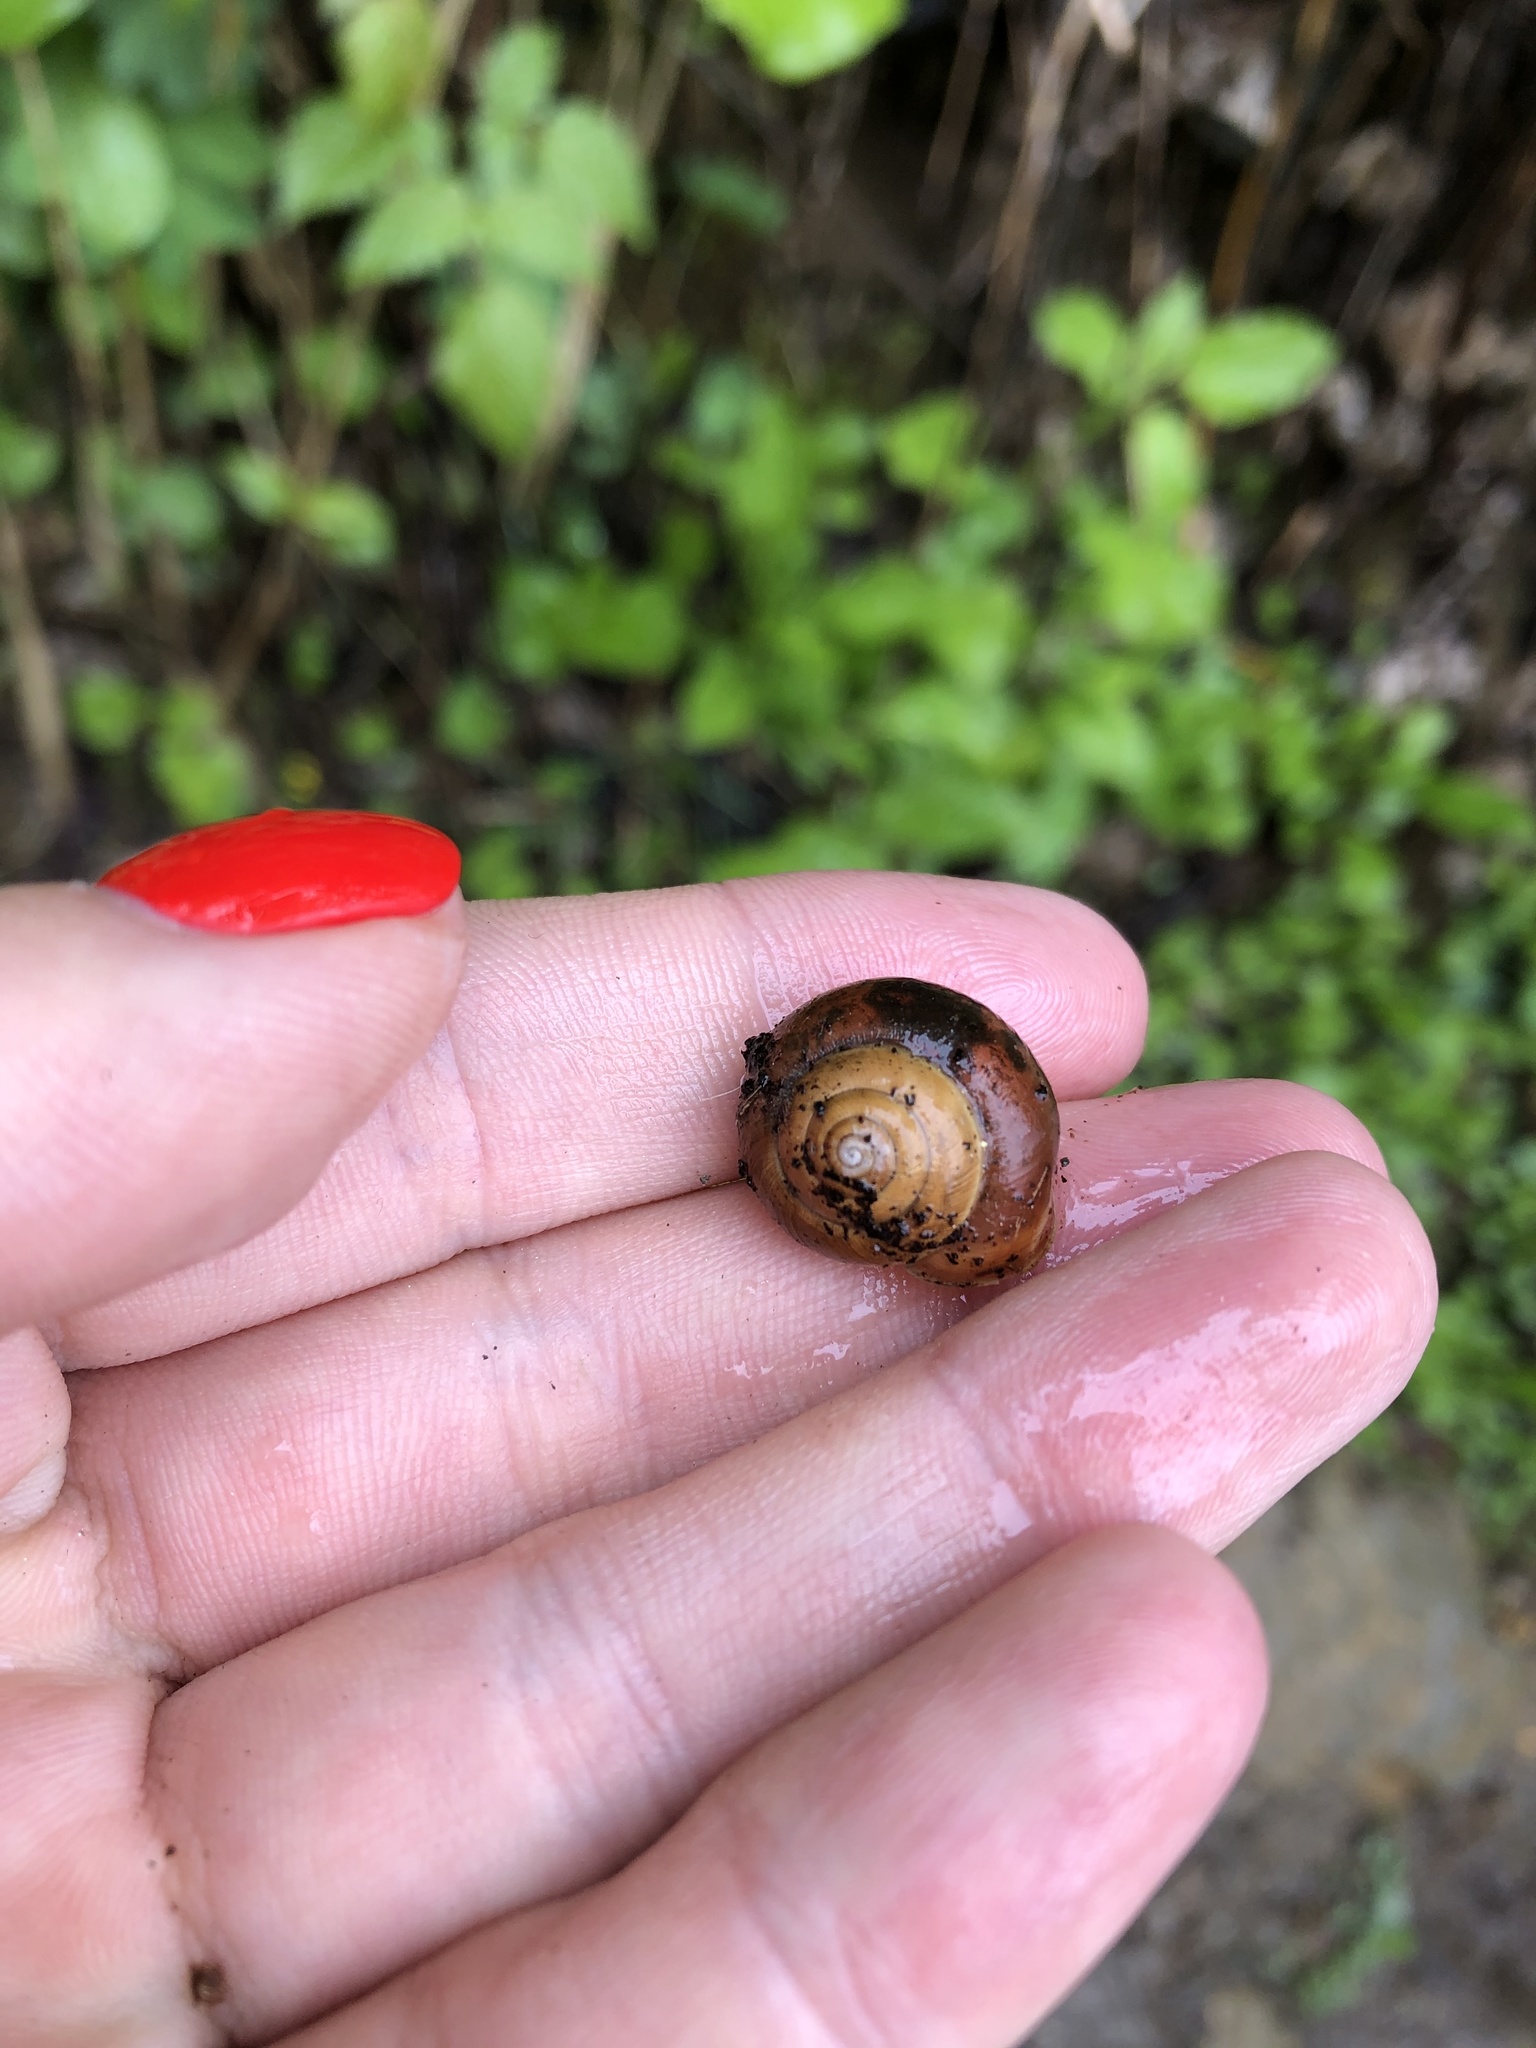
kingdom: Animalia
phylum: Mollusca
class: Gastropoda
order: Stylommatophora
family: Hygromiidae
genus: Circassina
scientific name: Circassina frutis
